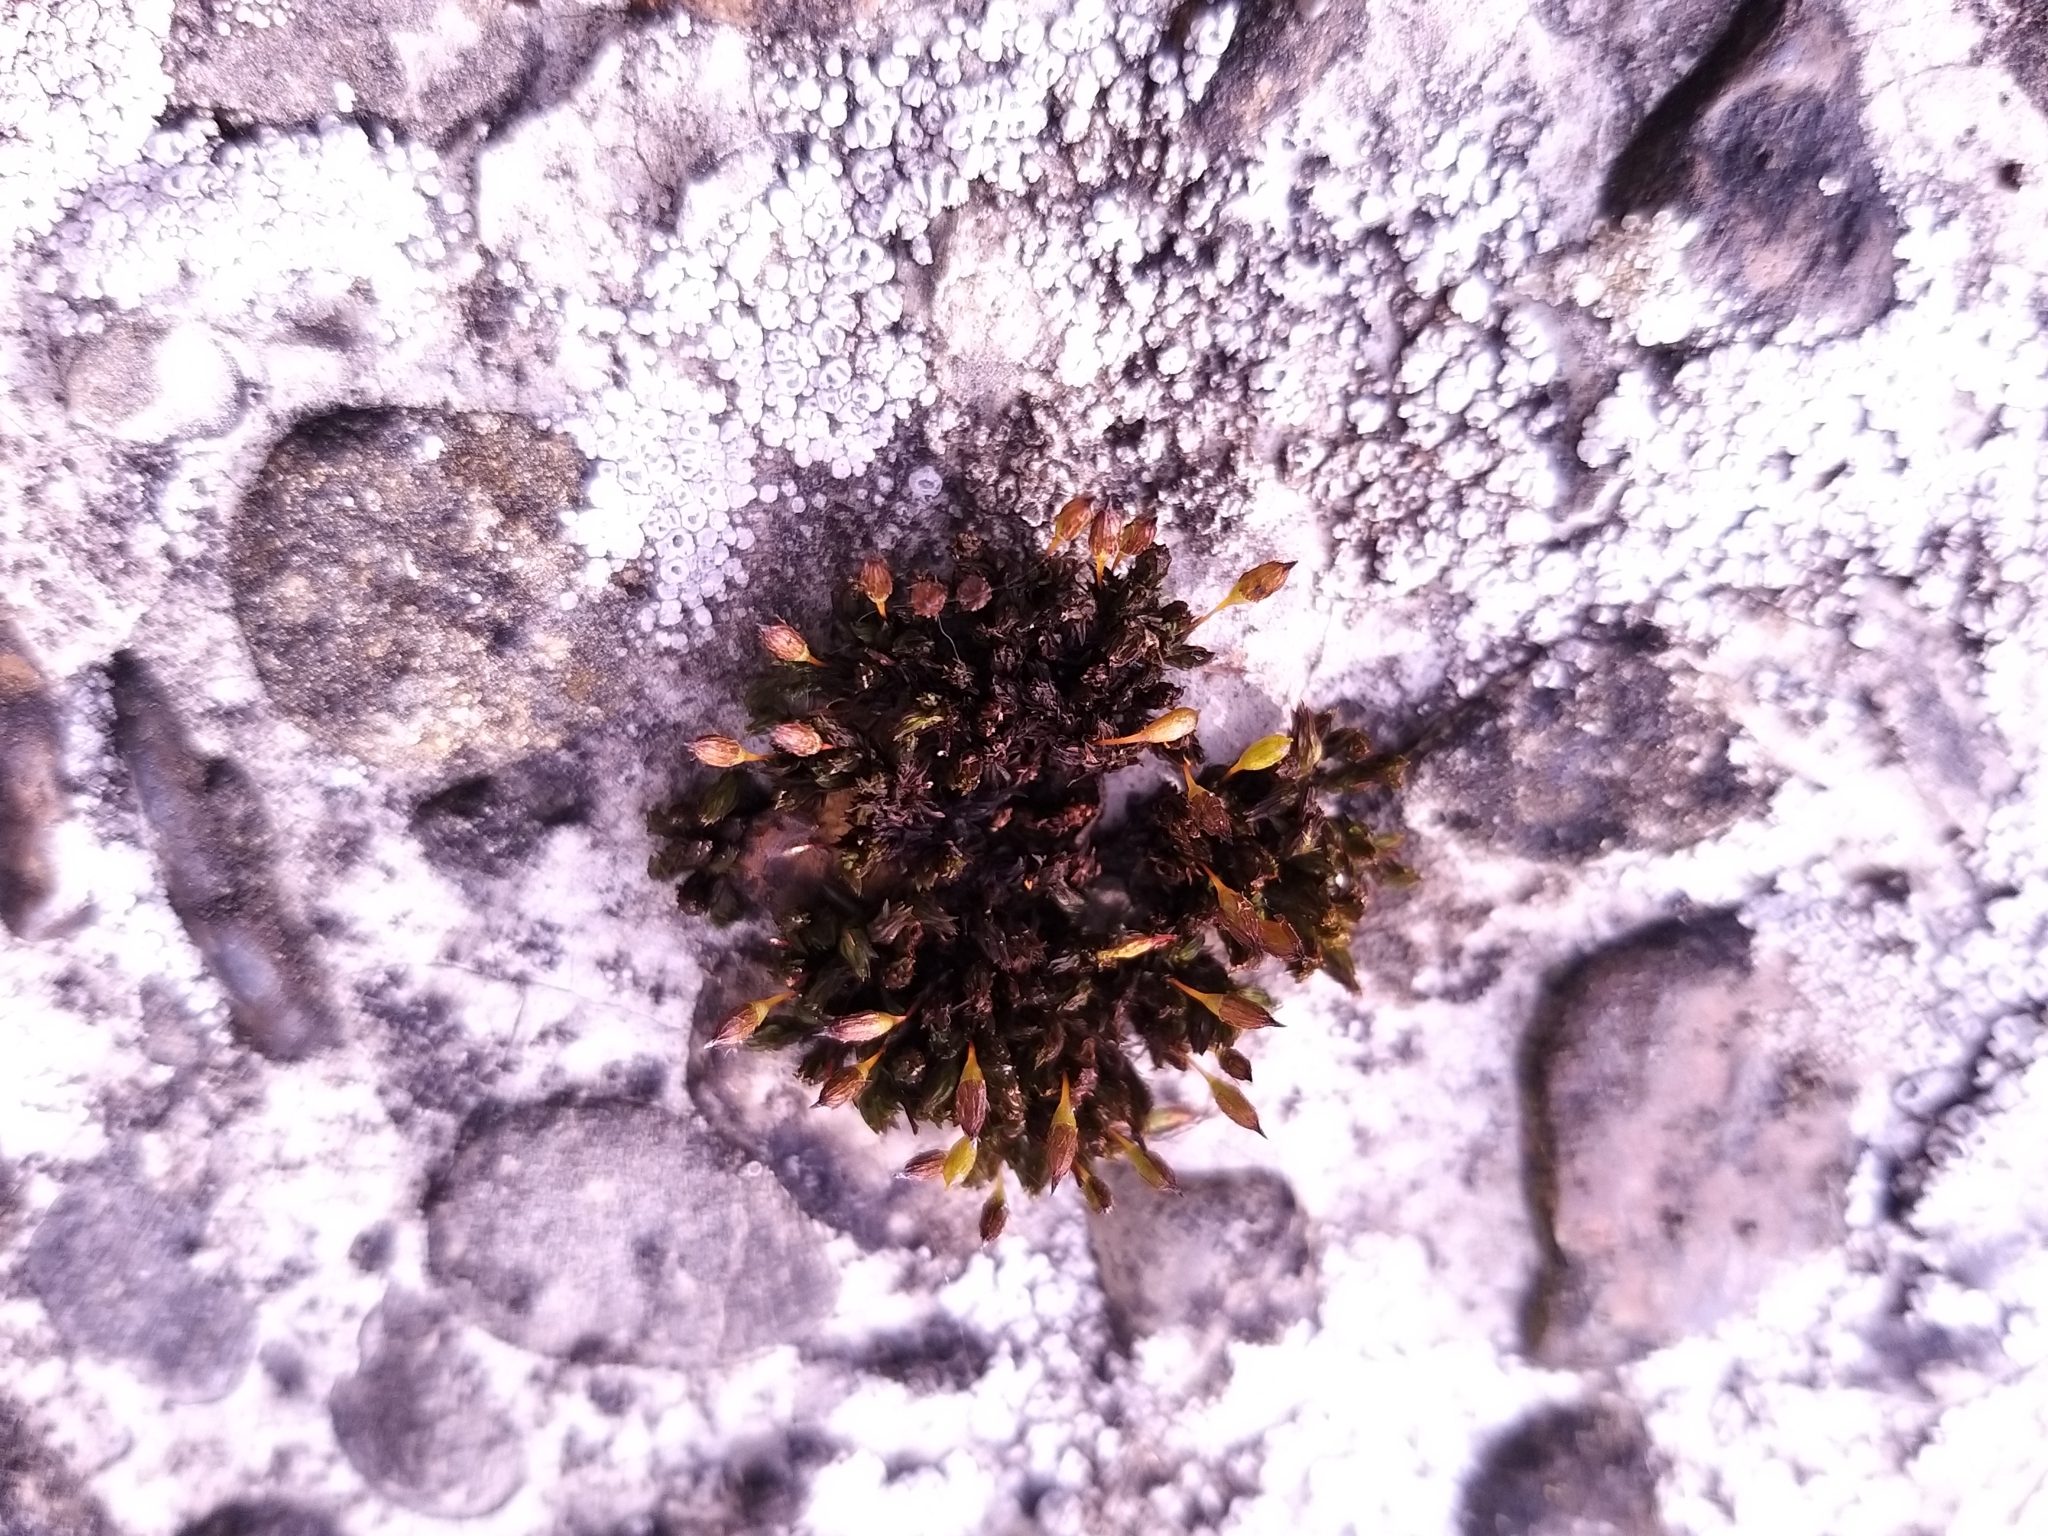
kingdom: Plantae
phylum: Bryophyta
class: Bryopsida
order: Orthotrichales
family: Orthotrichaceae
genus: Orthotrichum
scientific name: Orthotrichum anomalum
